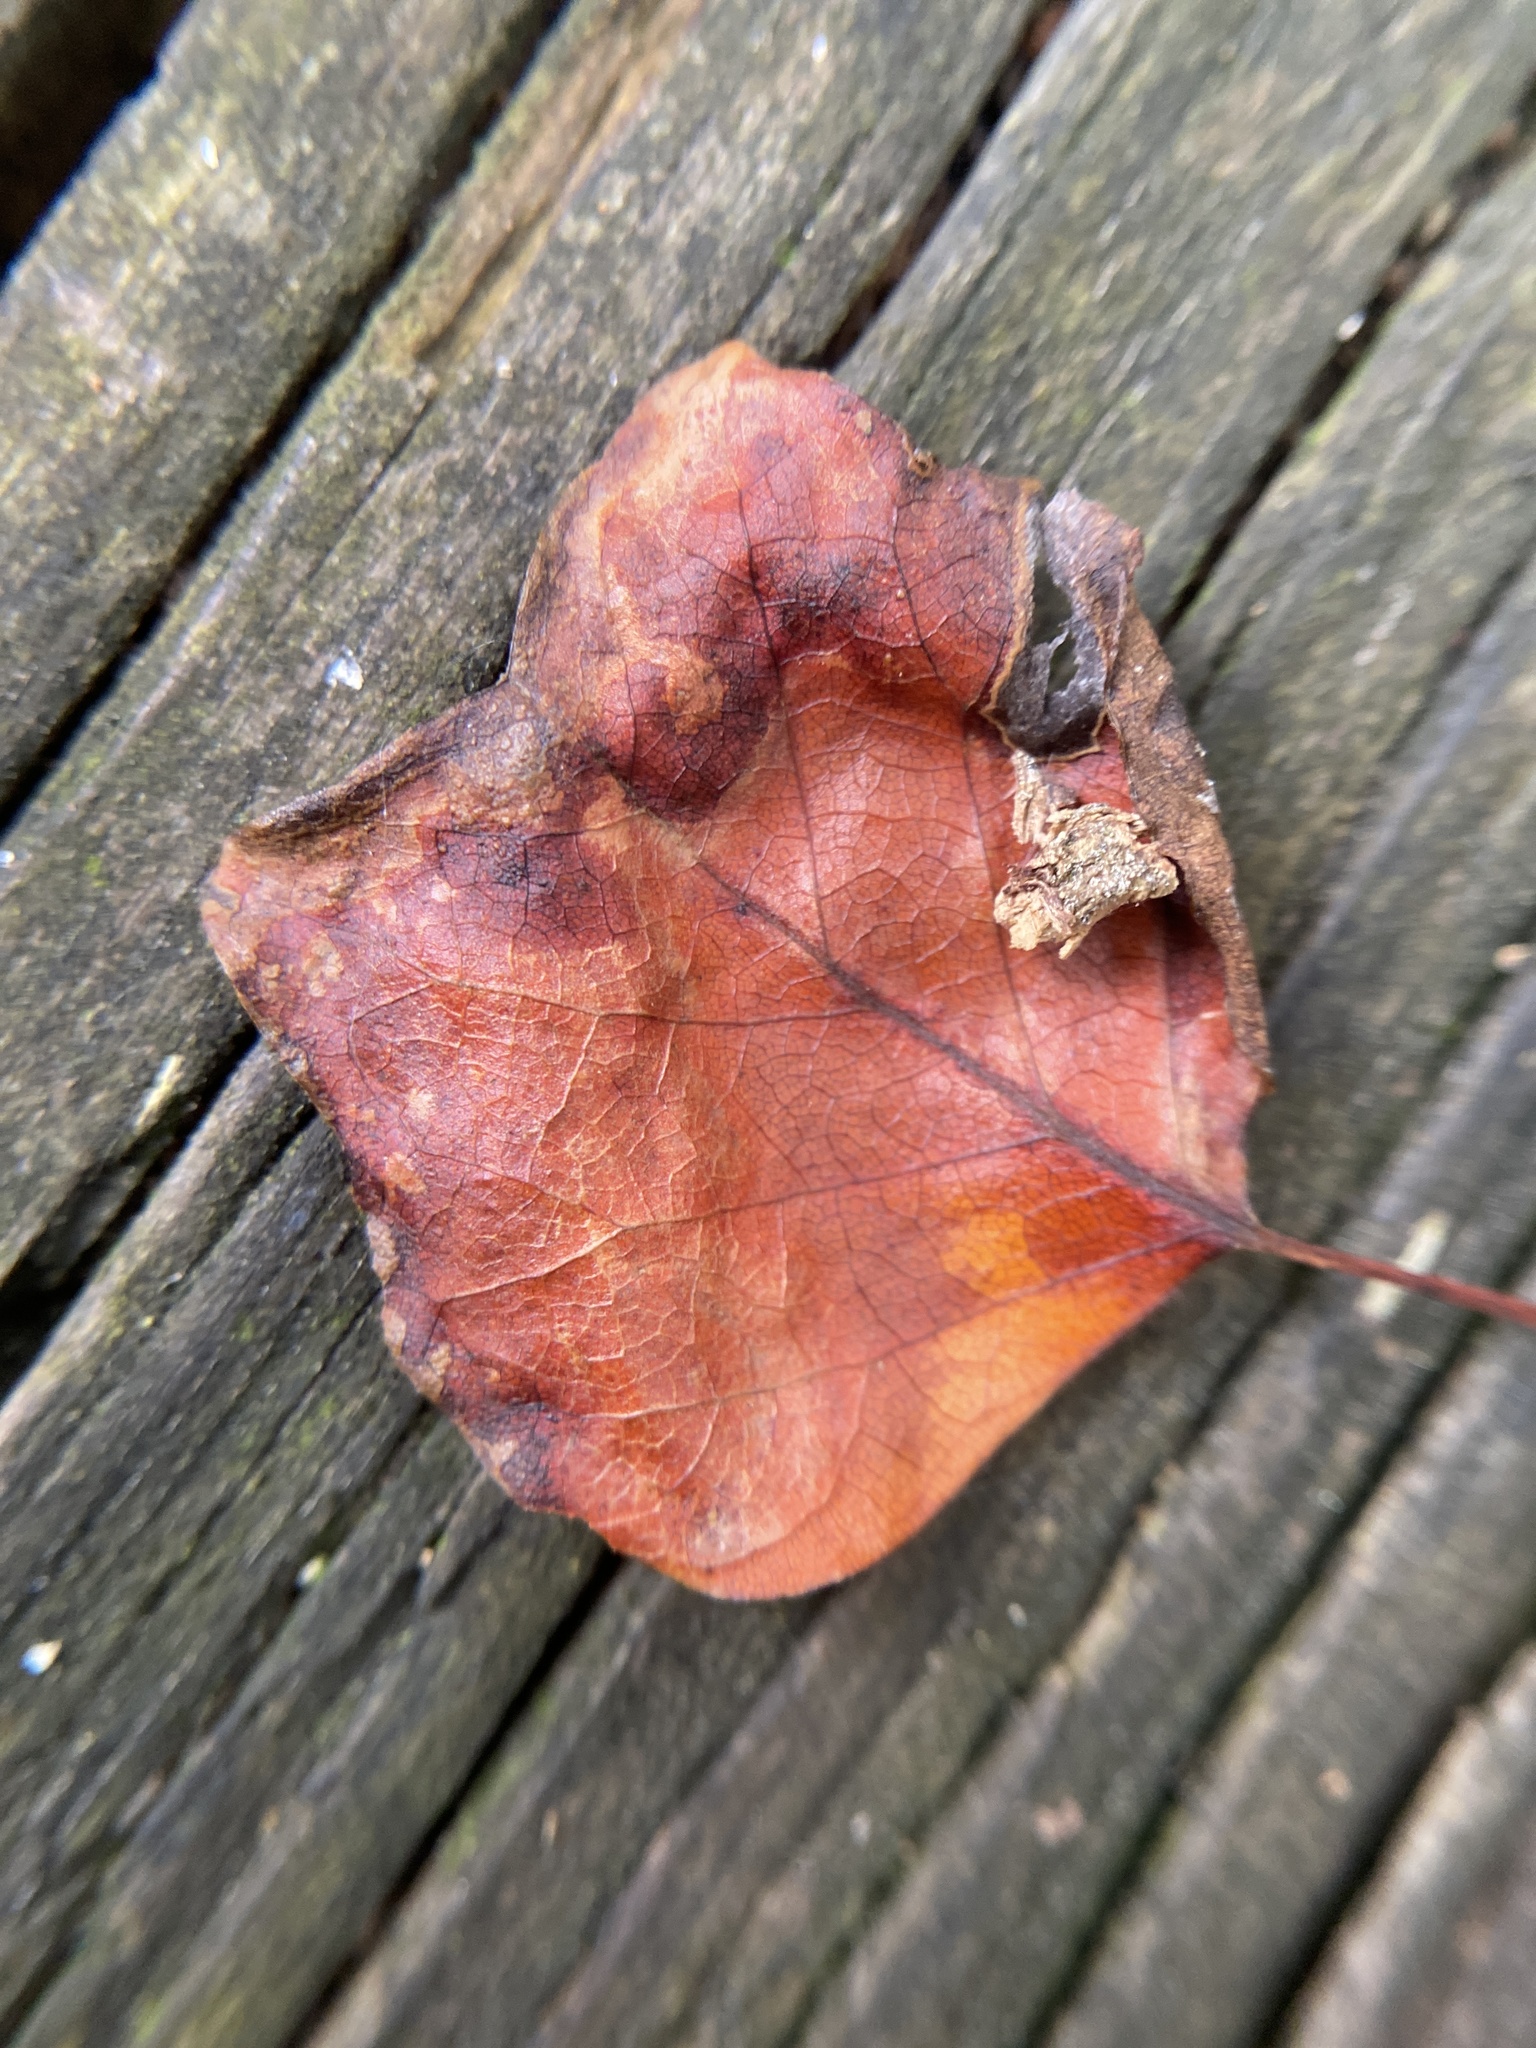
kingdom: Animalia
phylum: Arthropoda
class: Insecta
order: Lepidoptera
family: Gracillariidae
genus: Phyllocnistis
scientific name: Phyllocnistis liriodendronella
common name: Tulip tree leaf miner
